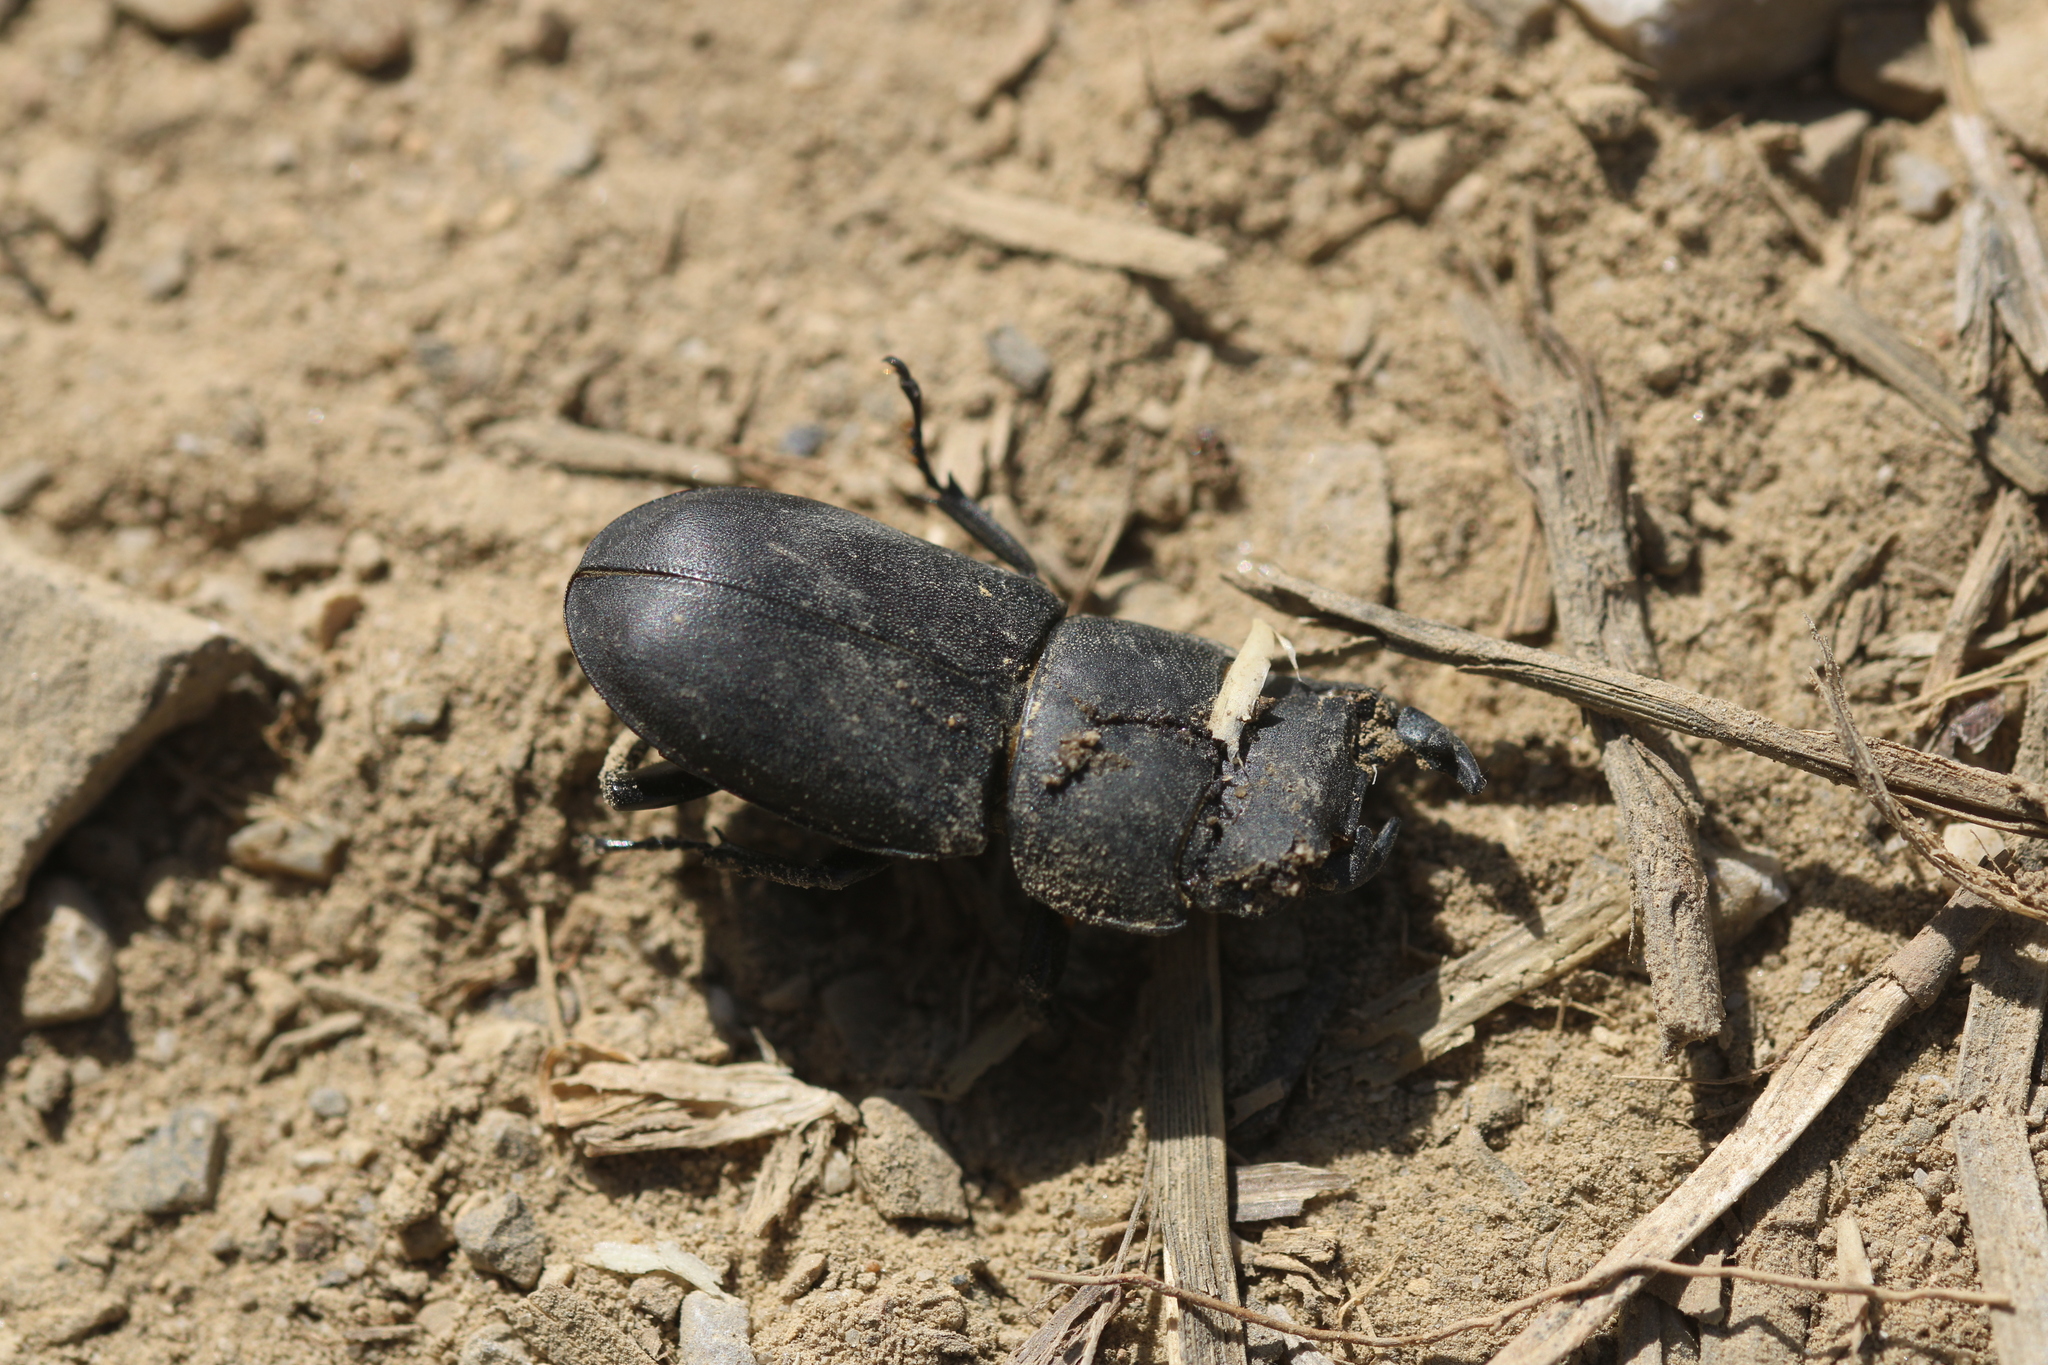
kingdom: Animalia
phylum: Arthropoda
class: Insecta
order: Coleoptera
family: Lucanidae
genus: Dorcus
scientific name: Dorcus parallelipipedus
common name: Lesser stag beetle
